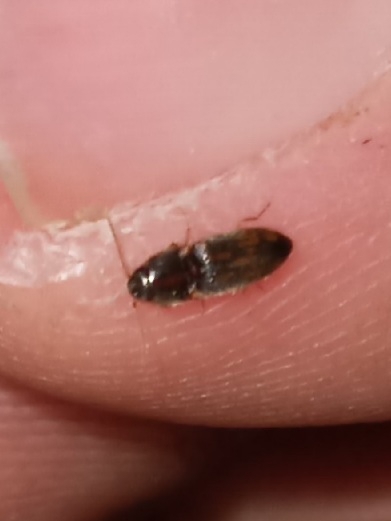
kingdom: Animalia
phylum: Arthropoda
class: Insecta
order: Coleoptera
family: Elateridae
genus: Monocrepidius
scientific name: Monocrepidius bellus
